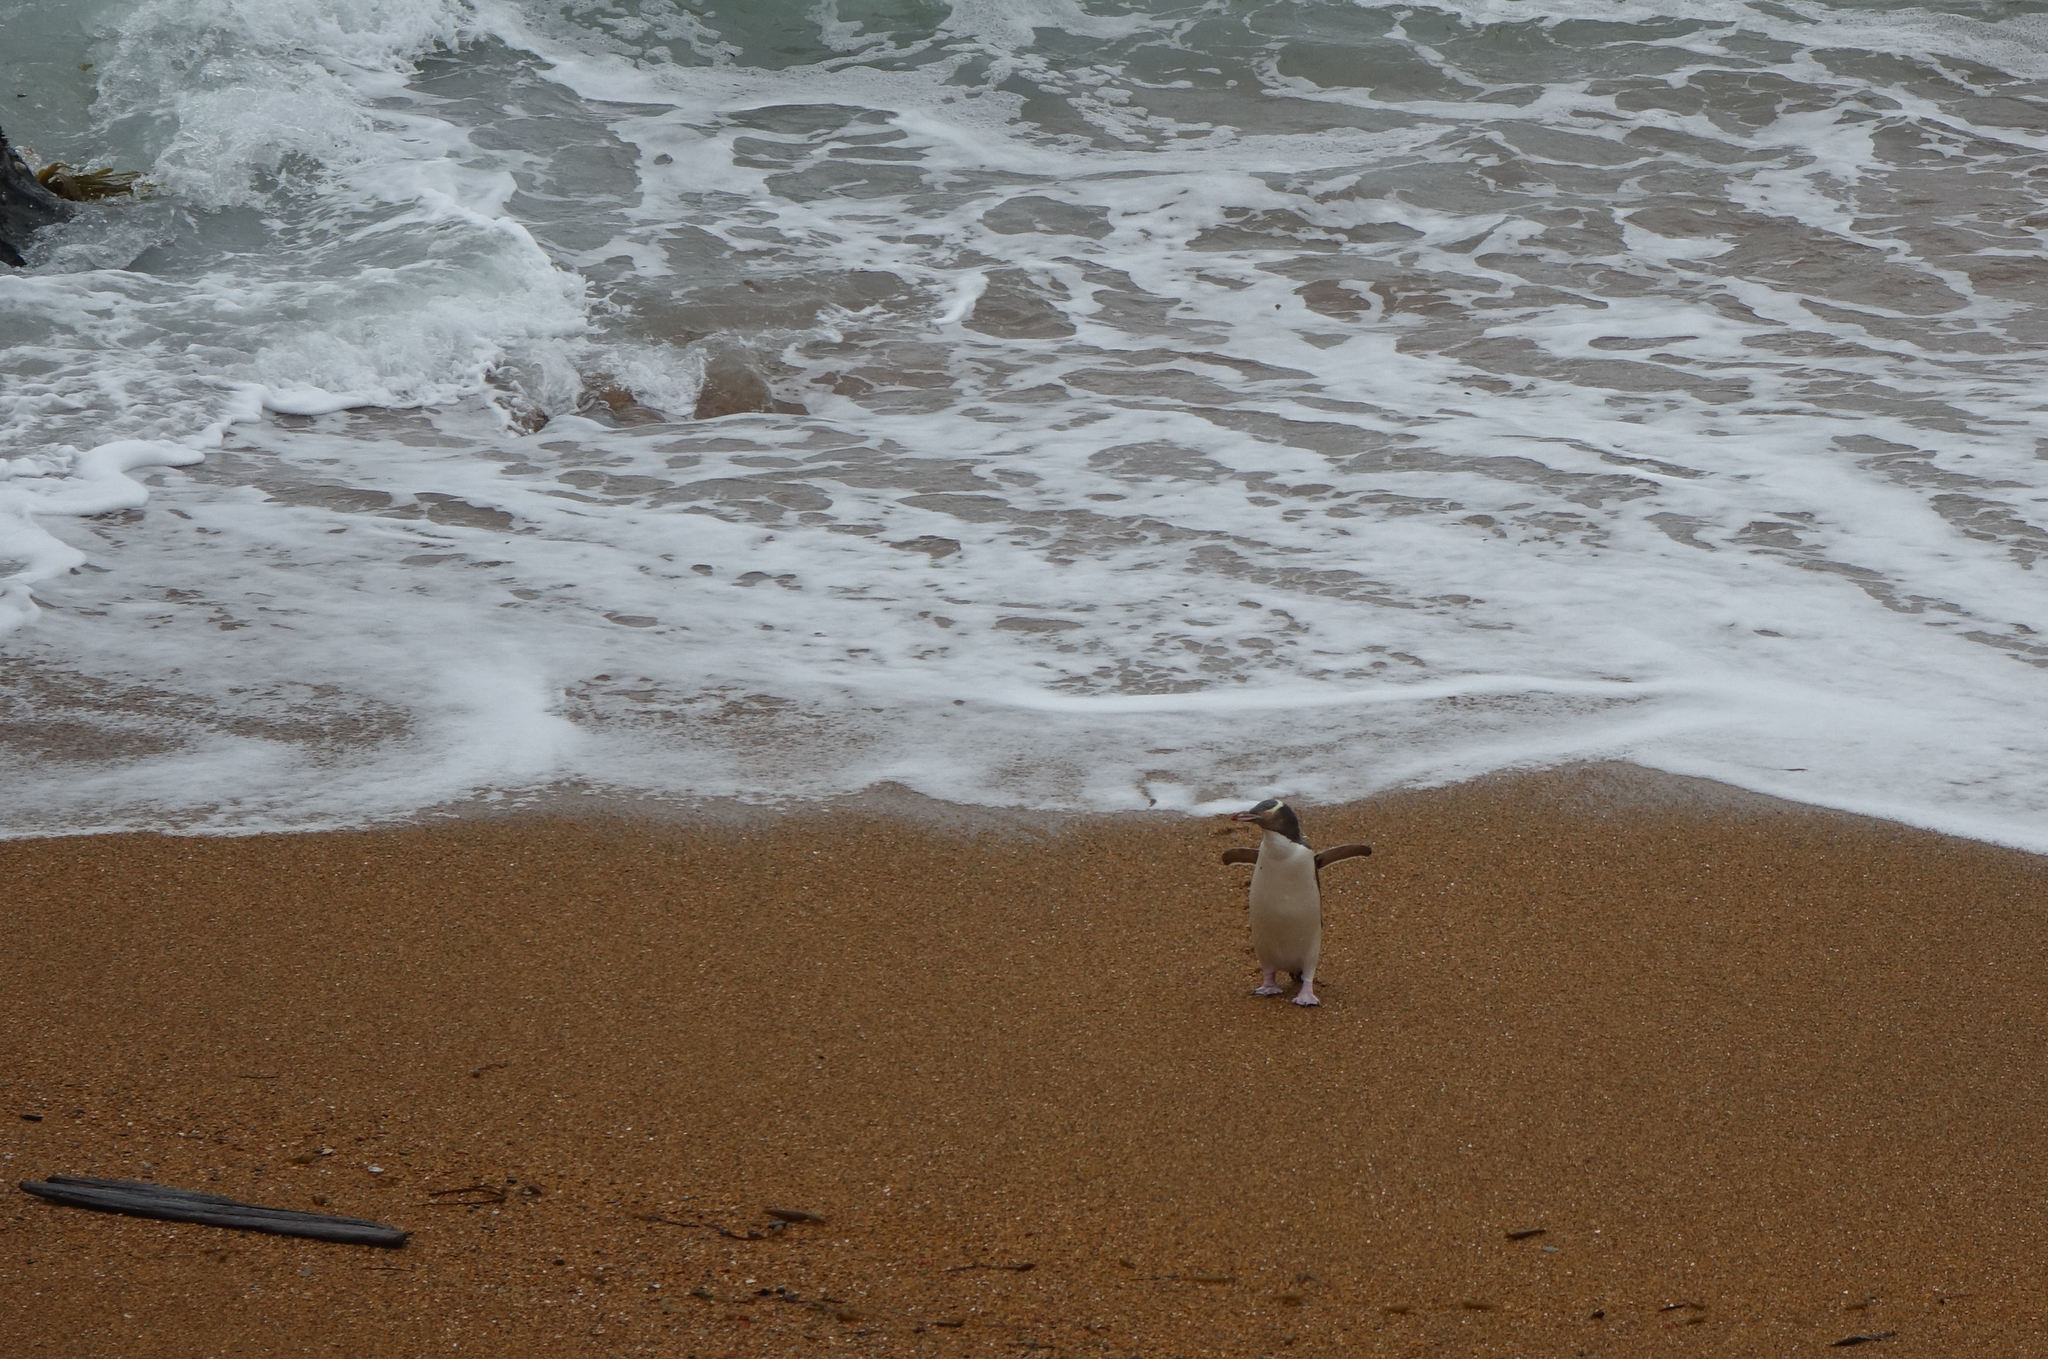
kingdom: Animalia
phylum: Chordata
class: Aves
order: Sphenisciformes
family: Spheniscidae
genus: Megadyptes
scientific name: Megadyptes antipodes
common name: Yellow-eyed penguin
